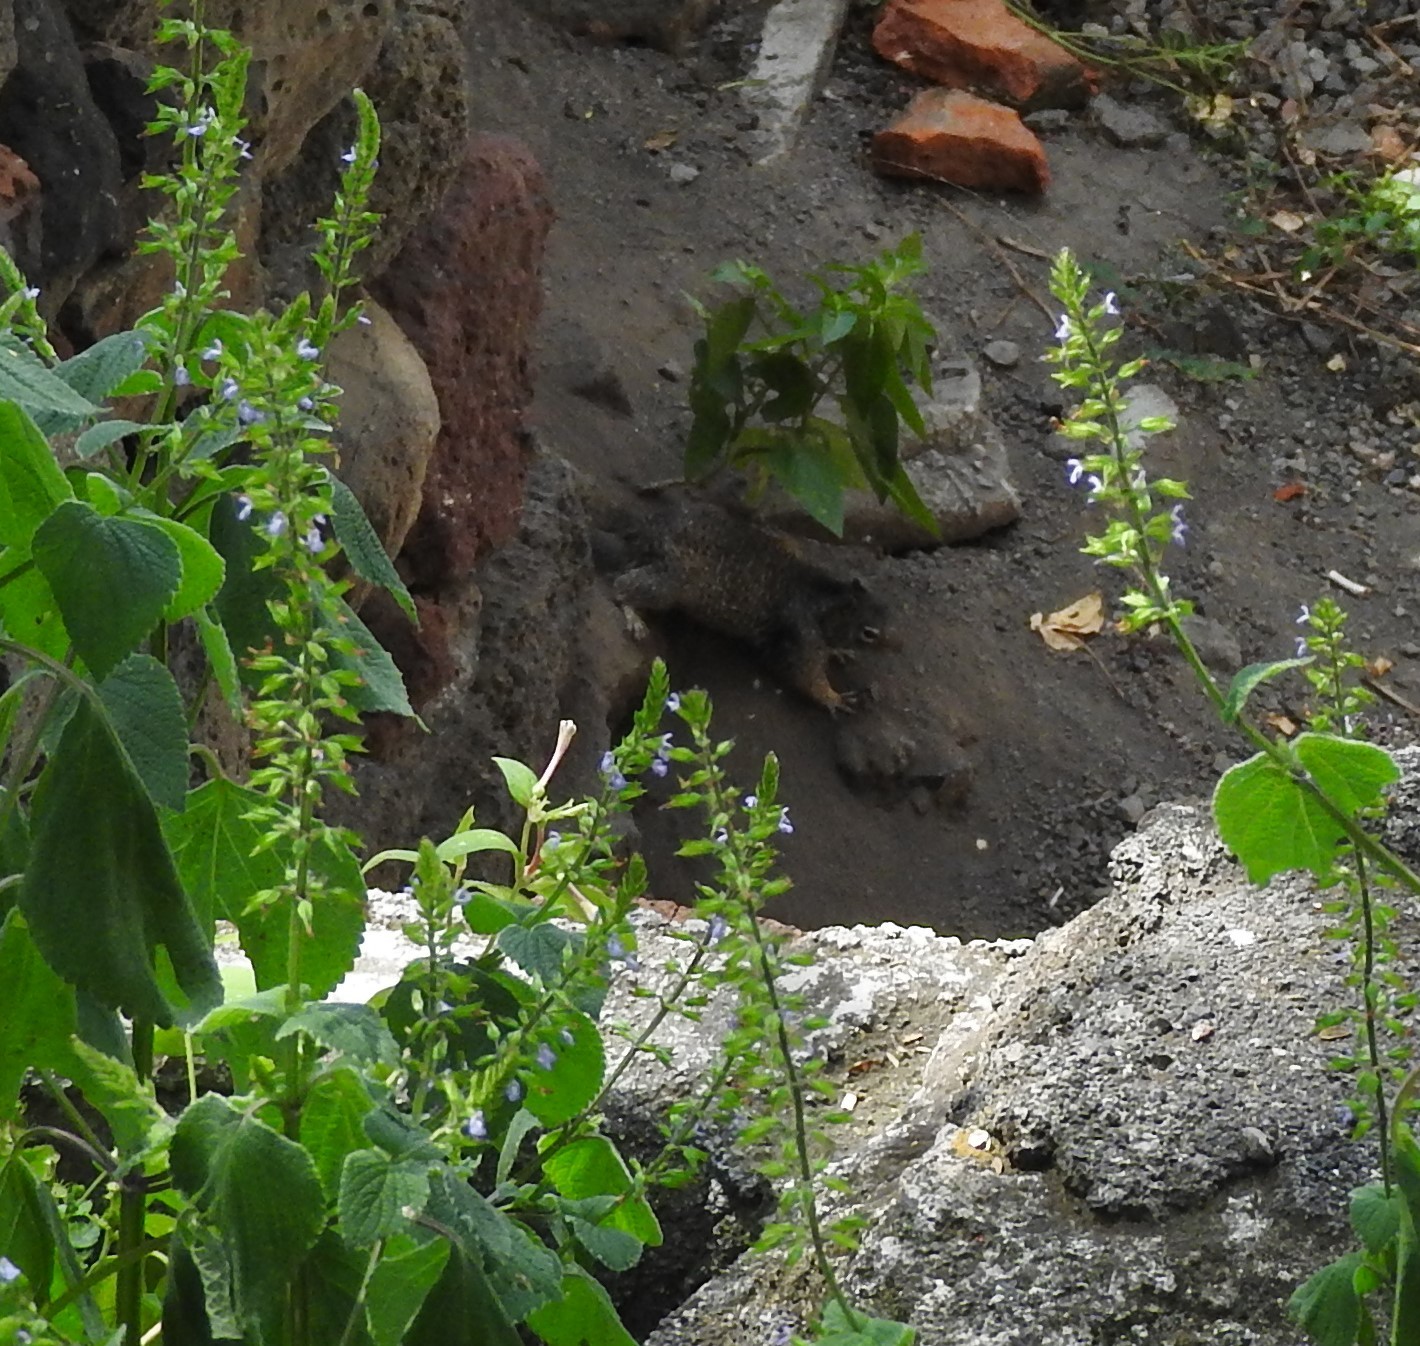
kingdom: Animalia
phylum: Chordata
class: Mammalia
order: Rodentia
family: Sciuridae
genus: Otospermophilus
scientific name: Otospermophilus variegatus
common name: Rock squirrel
